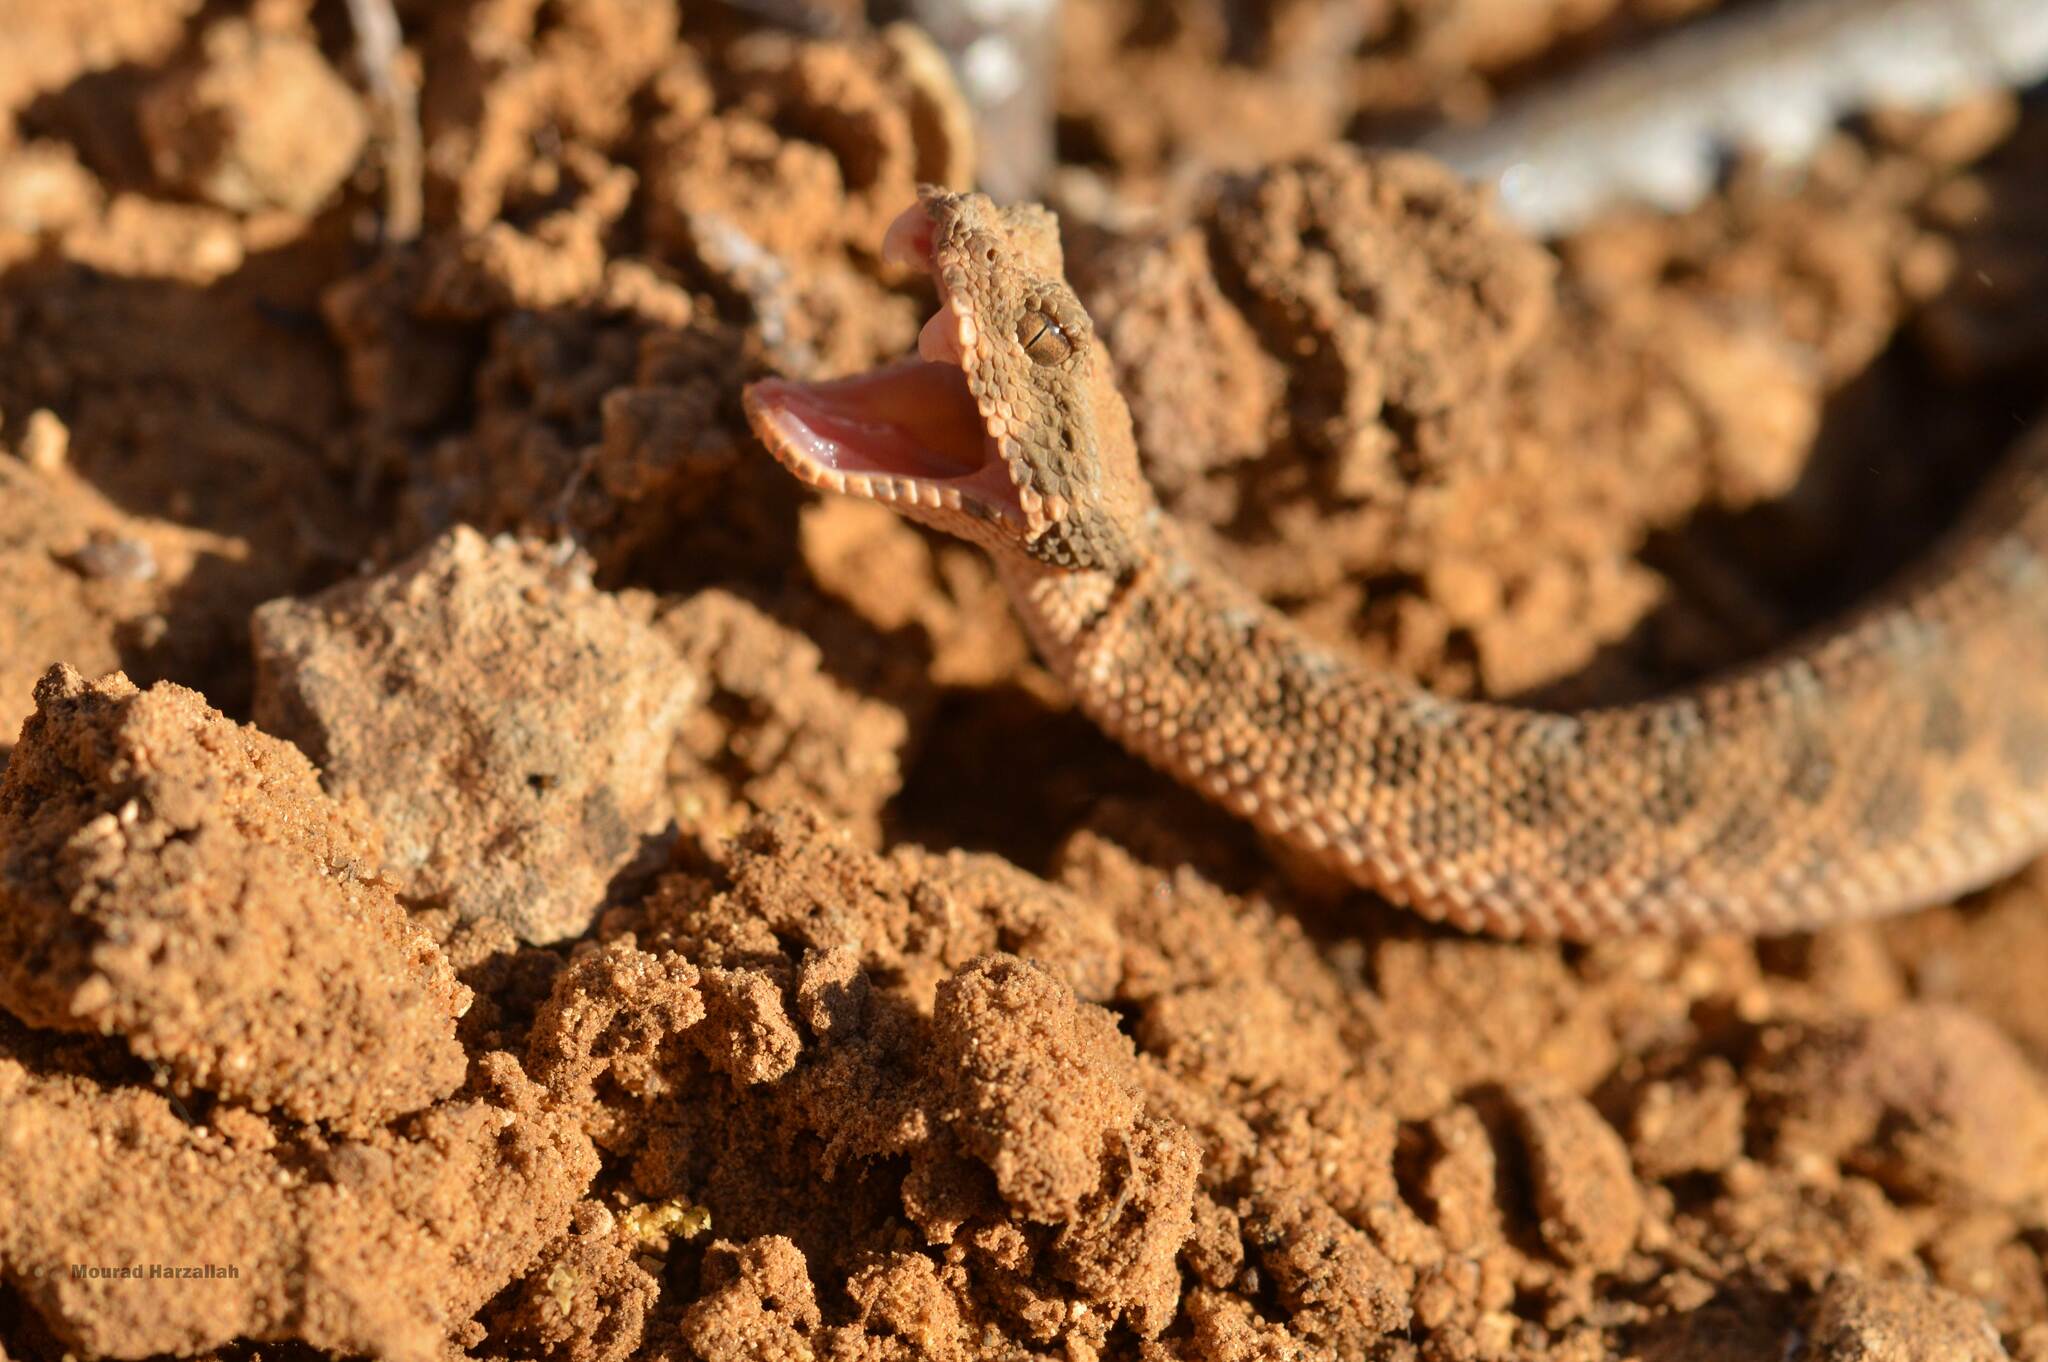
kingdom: Animalia
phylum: Chordata
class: Squamata
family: Viperidae
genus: Cerastes
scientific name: Cerastes cerastes
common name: Desert horned viper
